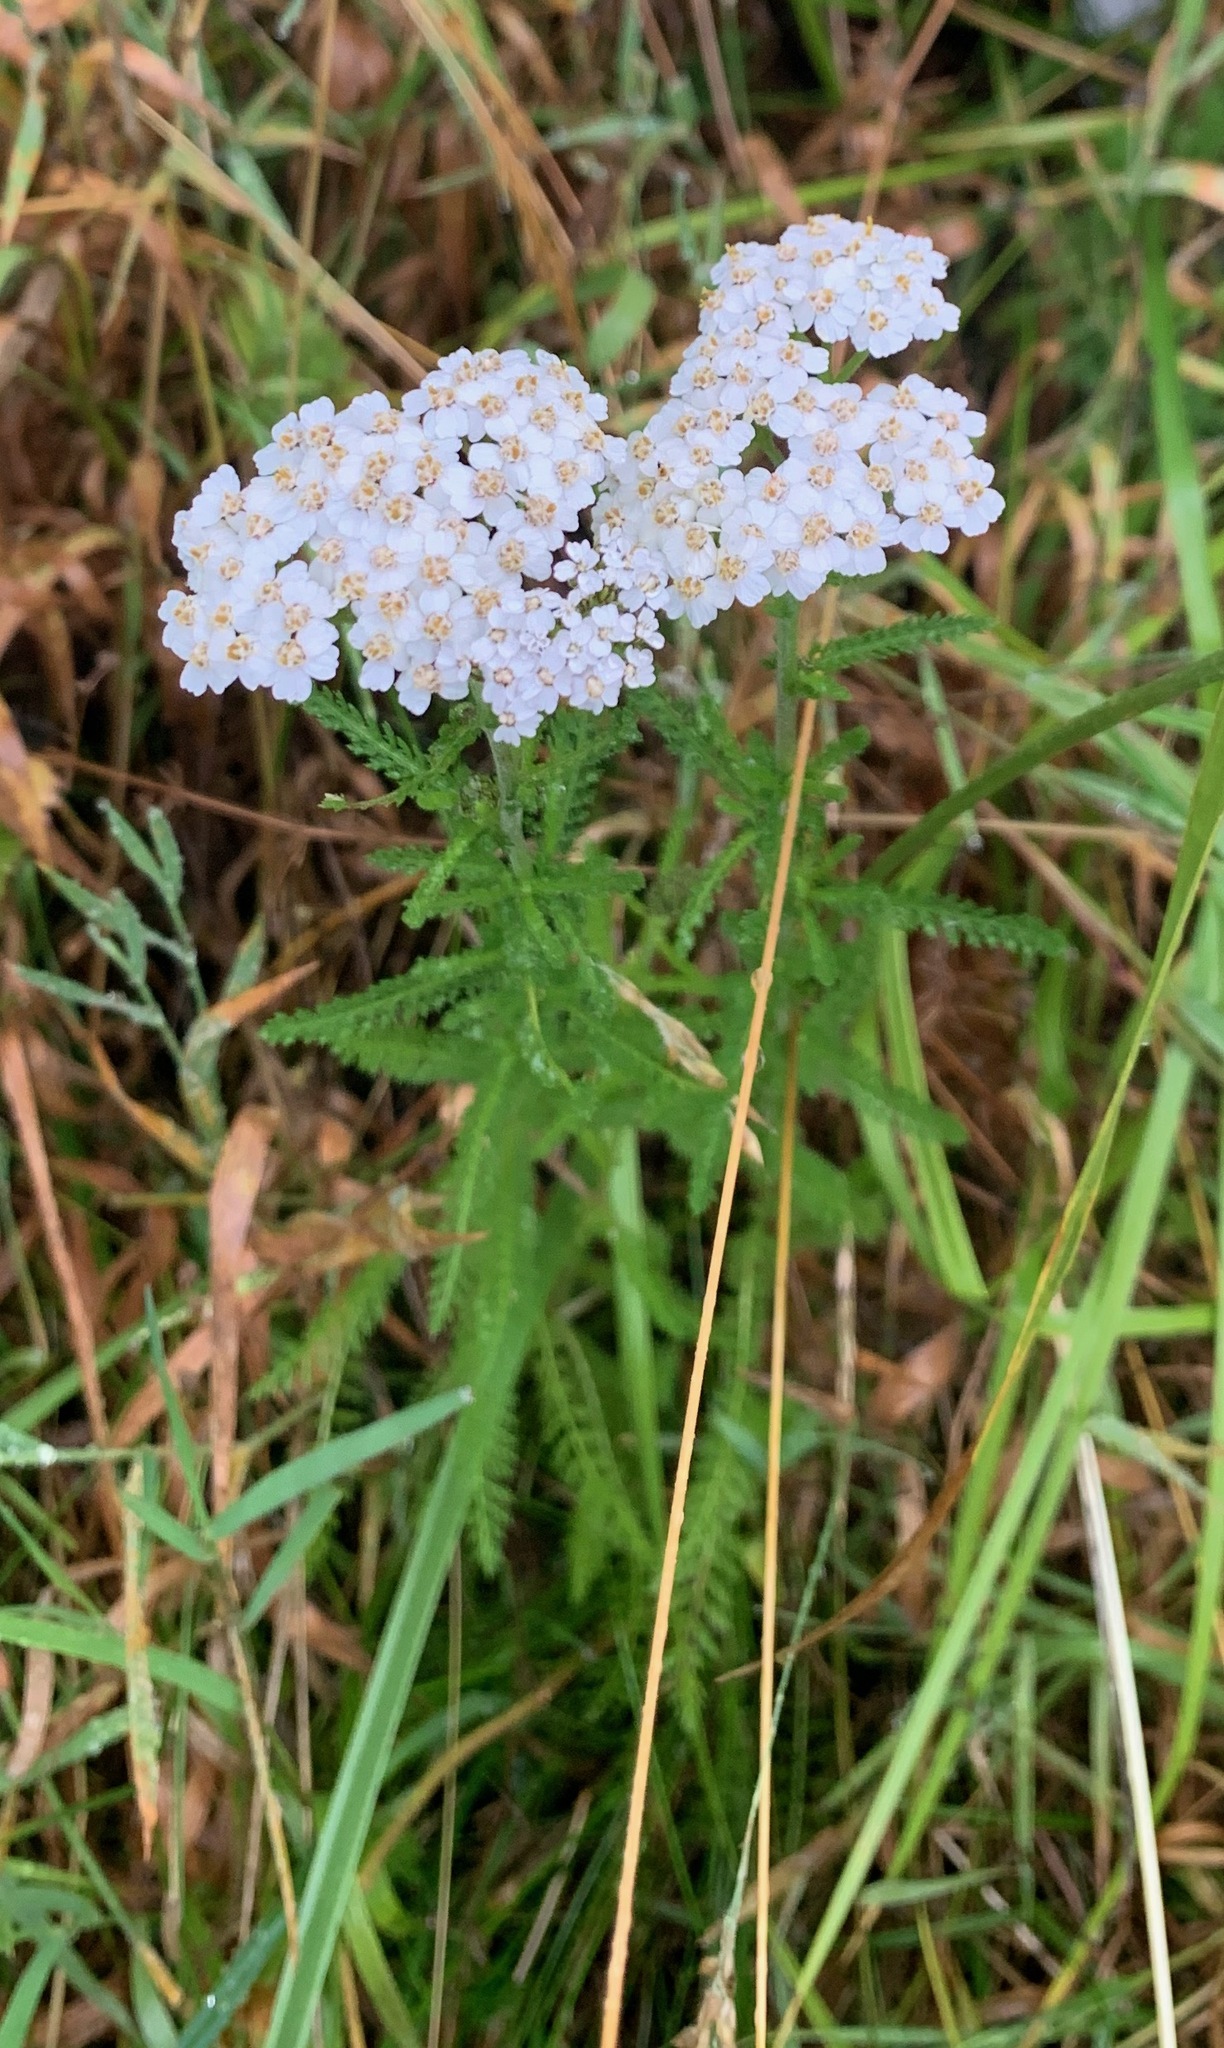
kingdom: Plantae
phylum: Tracheophyta
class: Magnoliopsida
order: Asterales
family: Asteraceae
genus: Achillea
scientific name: Achillea millefolium
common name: Yarrow
